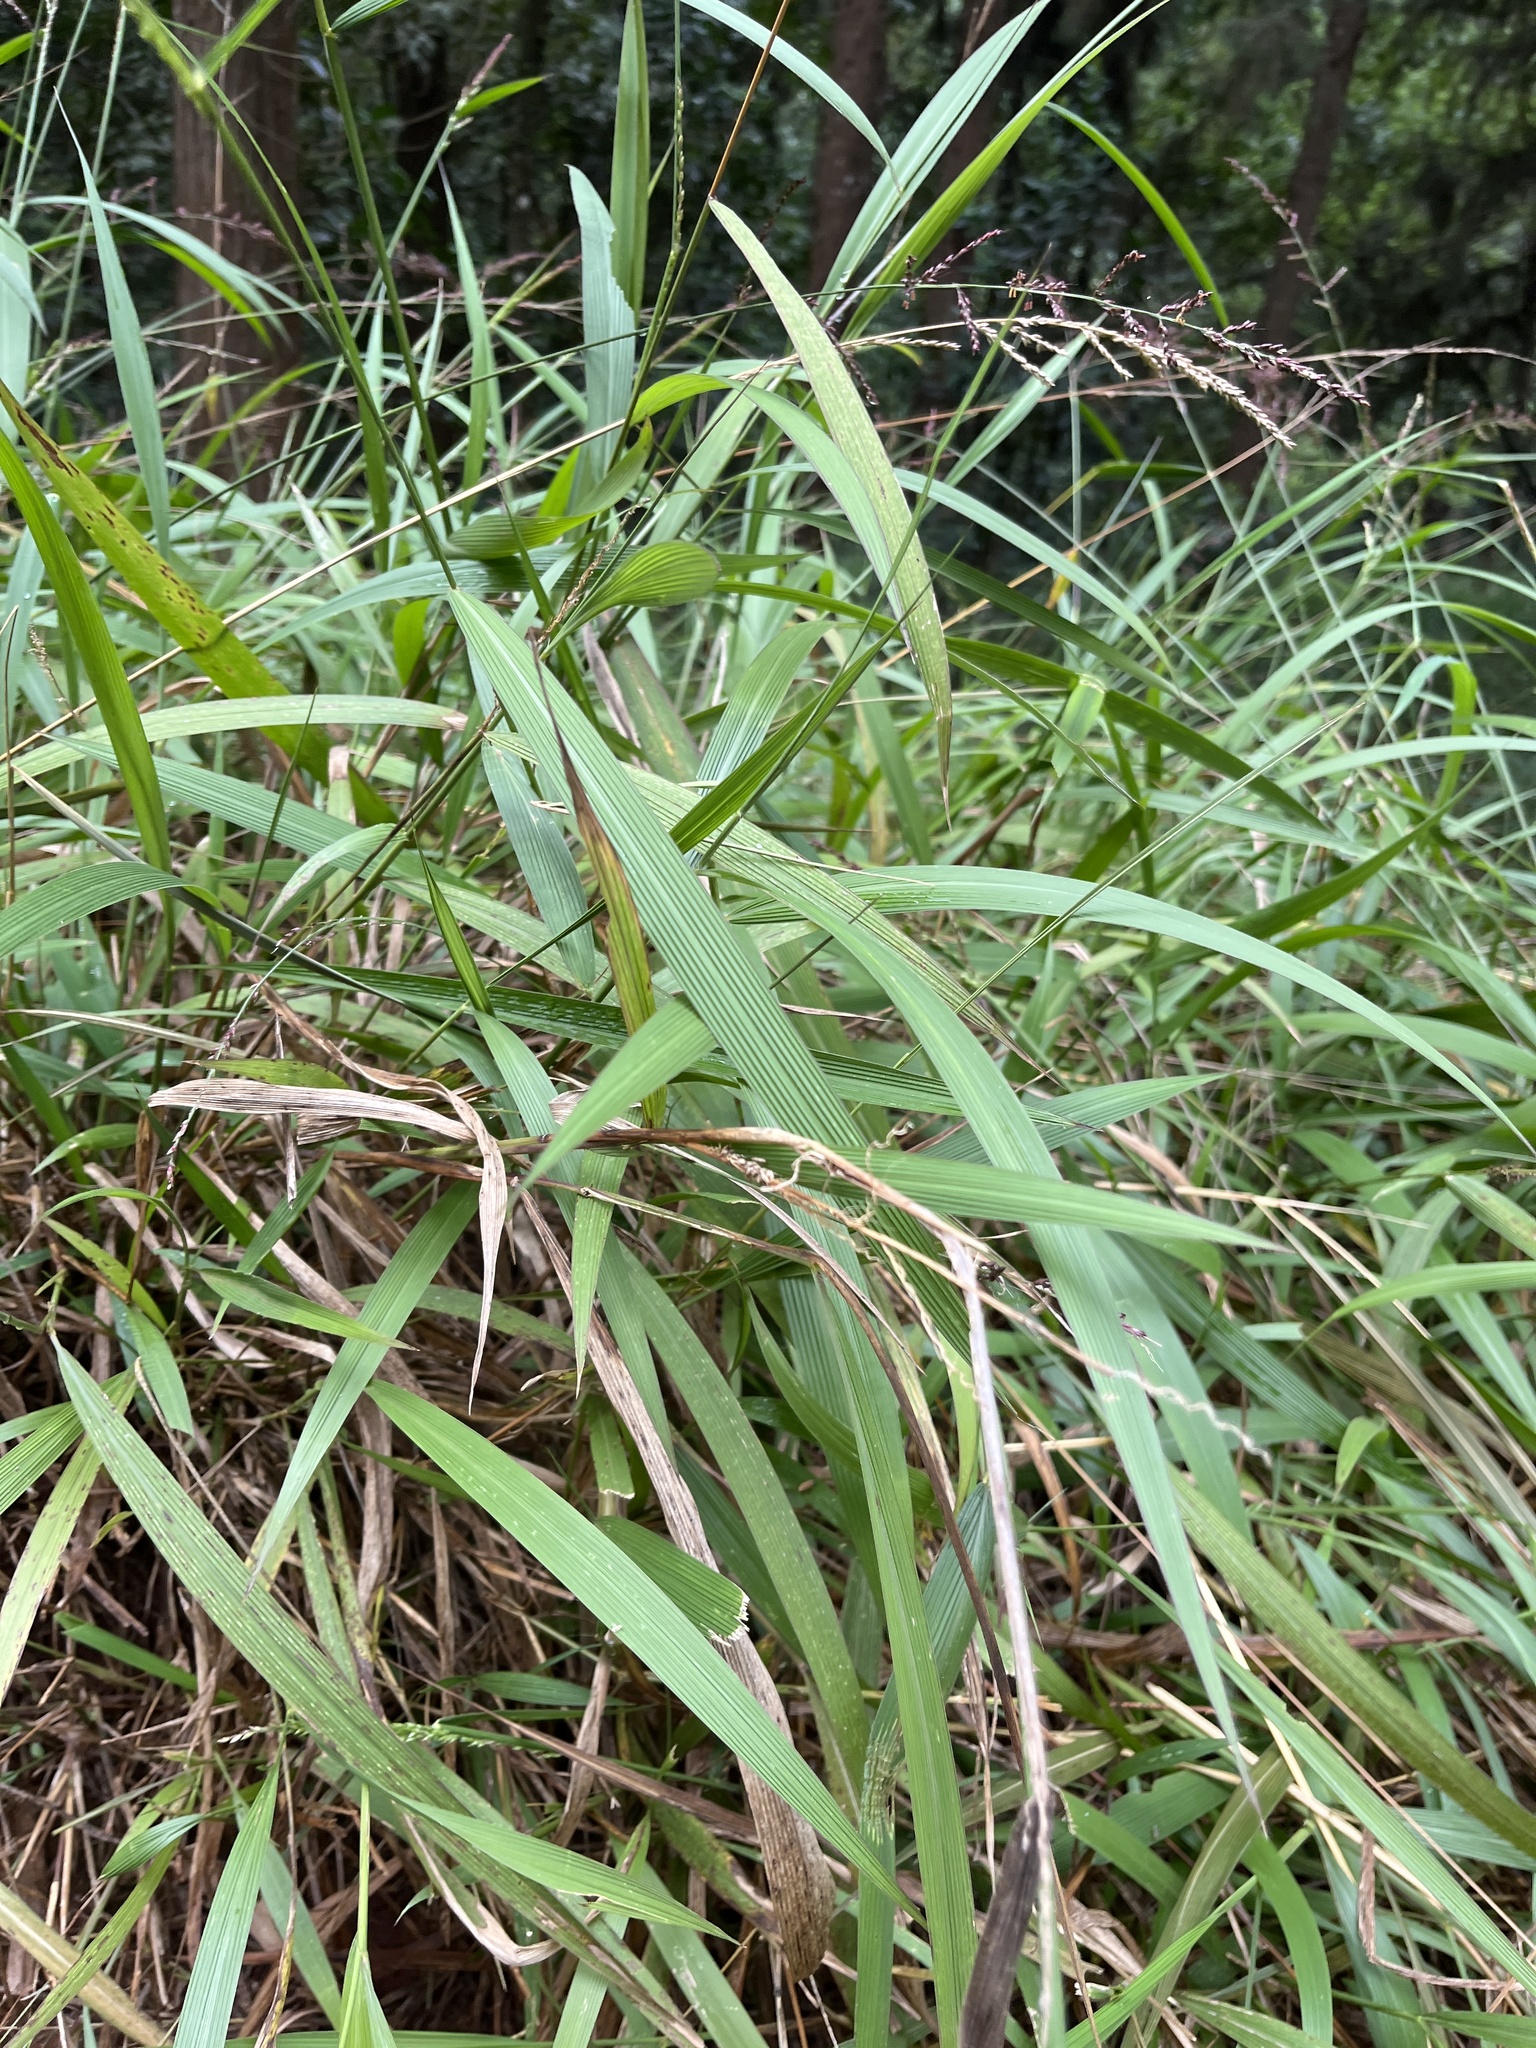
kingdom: Plantae
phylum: Tracheophyta
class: Liliopsida
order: Poales
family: Poaceae
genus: Setaria
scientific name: Setaria megaphylla
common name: Bigleaf bristlegrass
